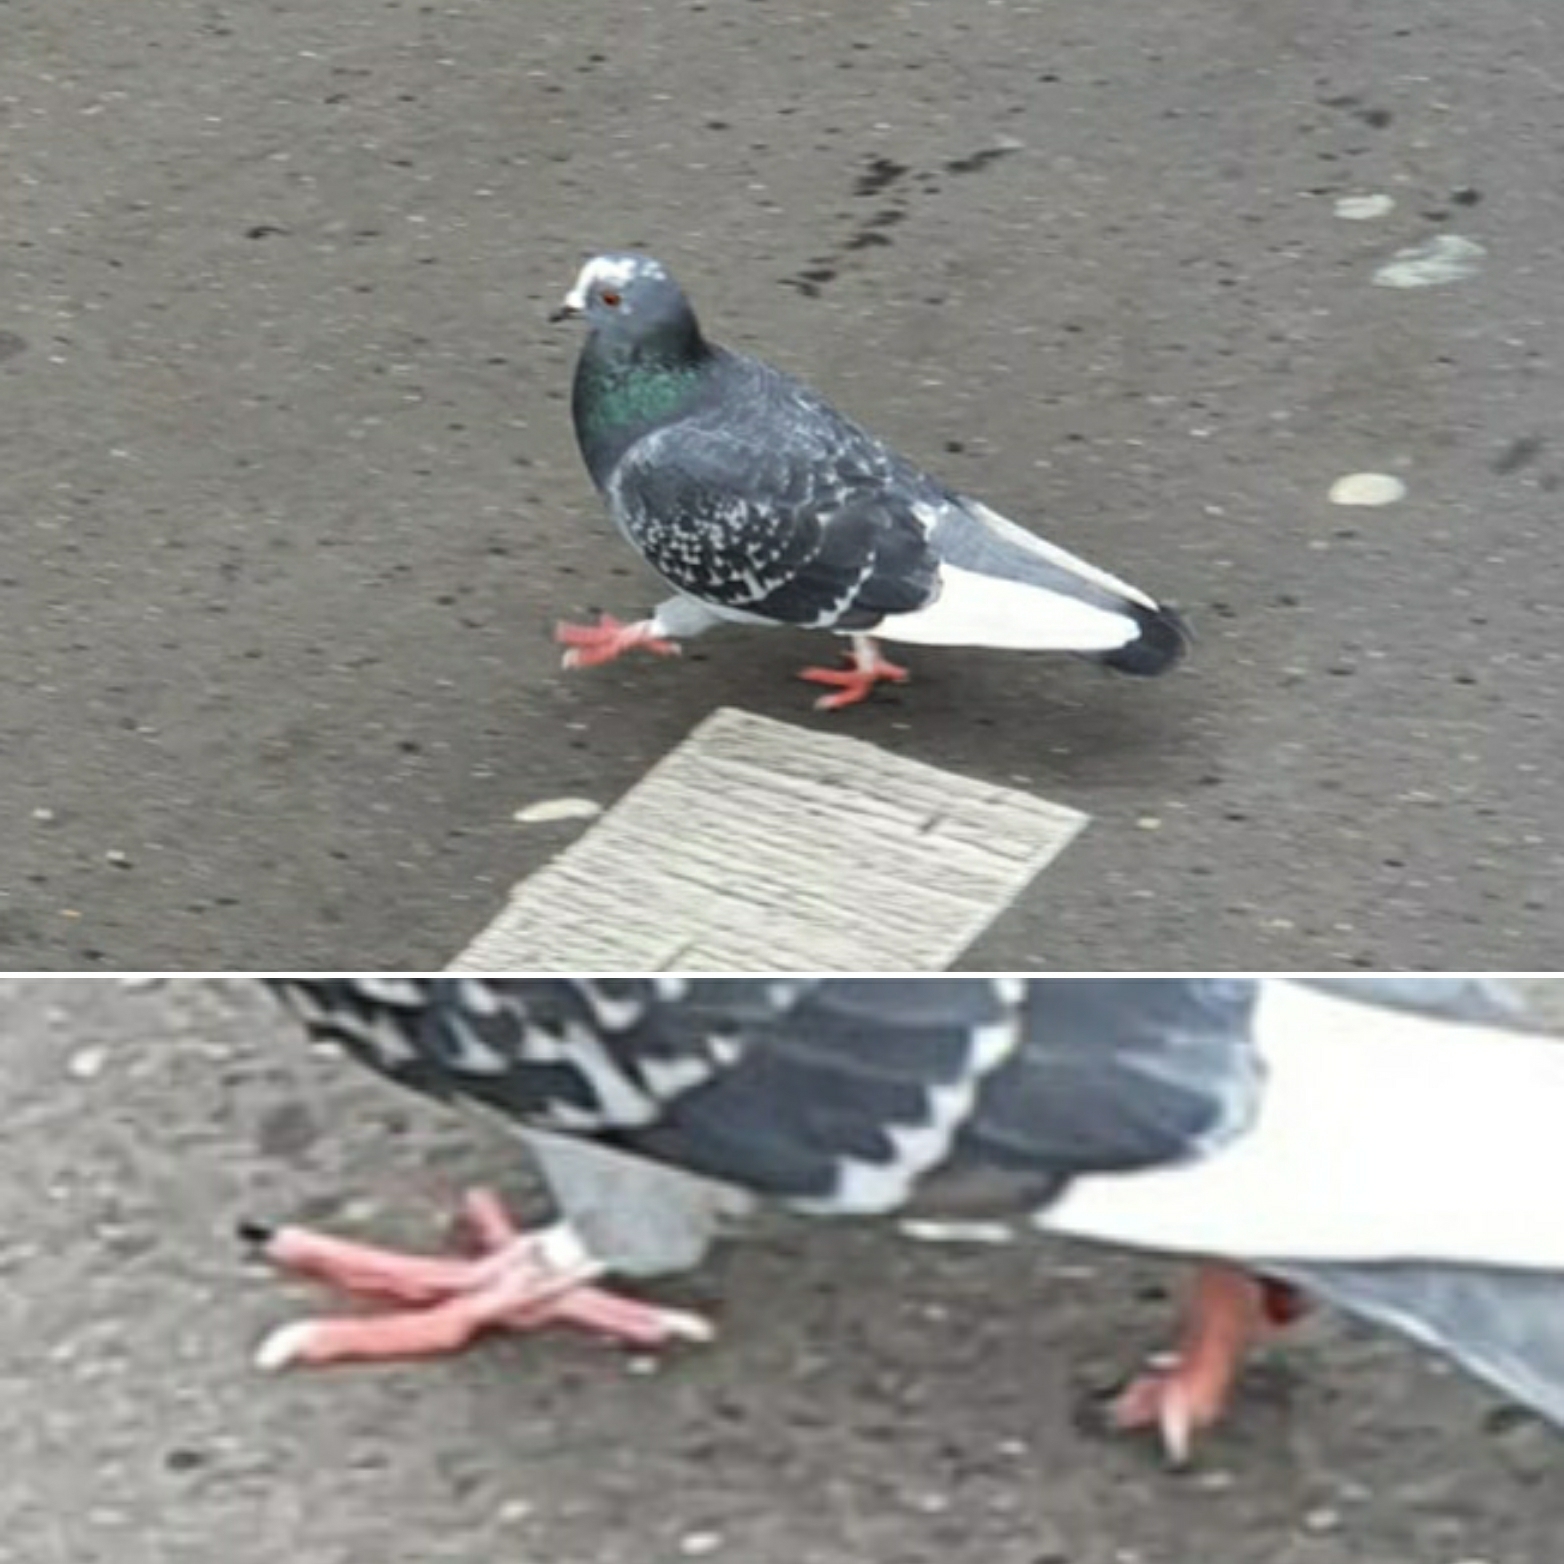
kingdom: Animalia
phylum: Chordata
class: Aves
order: Columbiformes
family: Columbidae
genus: Columba
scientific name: Columba livia
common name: Rock pigeon
